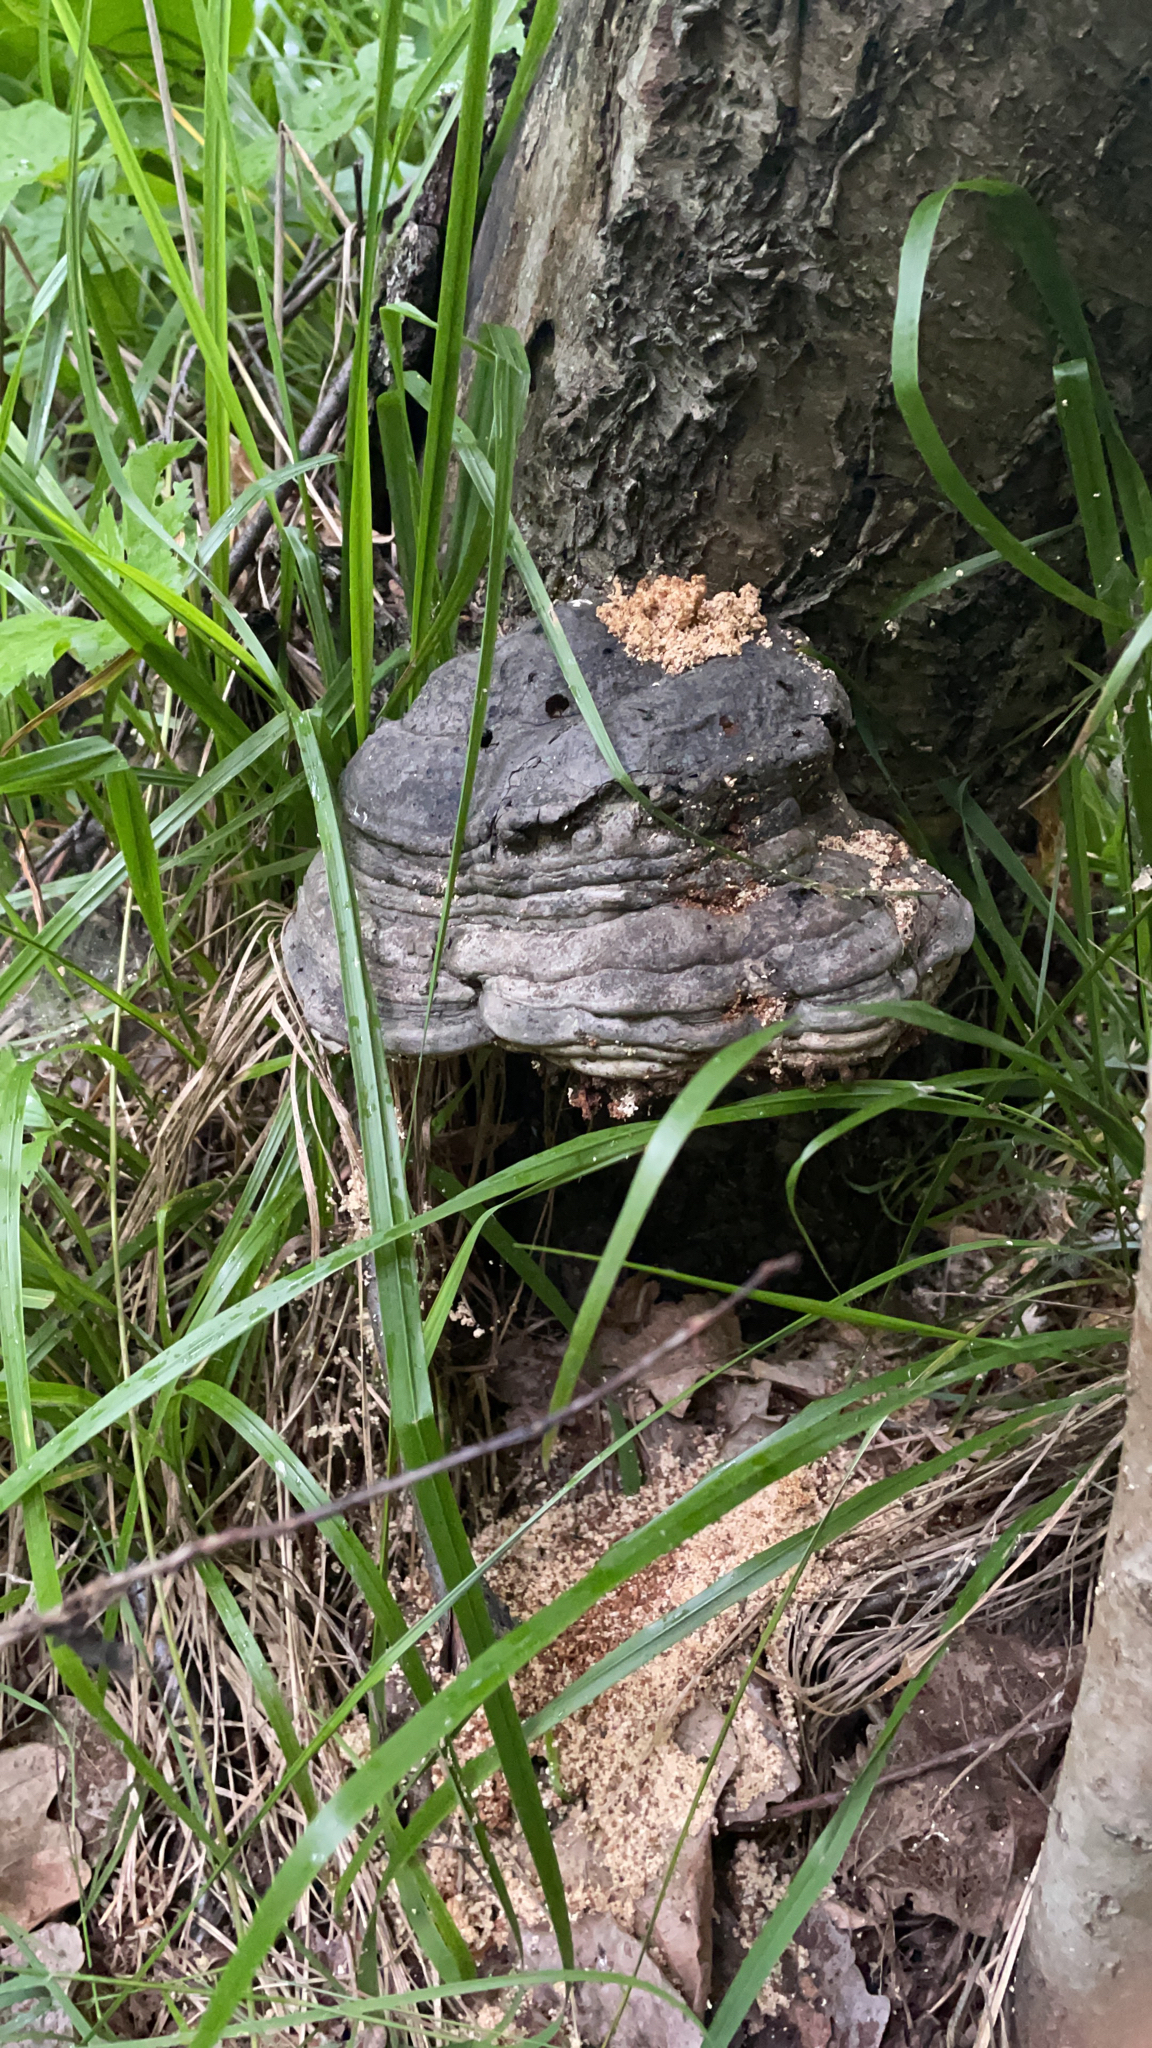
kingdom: Fungi
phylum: Basidiomycota
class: Agaricomycetes
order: Polyporales
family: Polyporaceae
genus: Fomes
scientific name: Fomes fomentarius
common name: Hoof fungus
